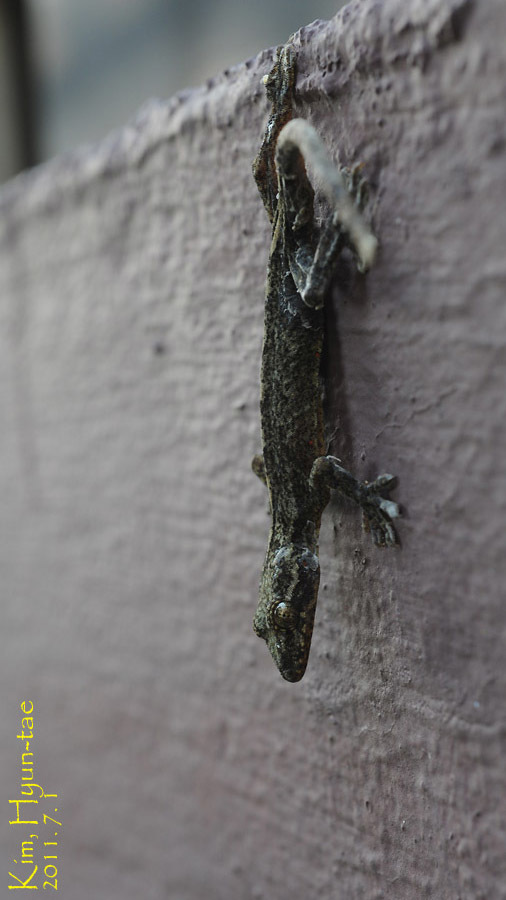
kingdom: Animalia
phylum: Chordata
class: Squamata
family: Gekkonidae
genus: Gekko
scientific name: Gekko japonicus
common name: Schlegel's japanese gecko
